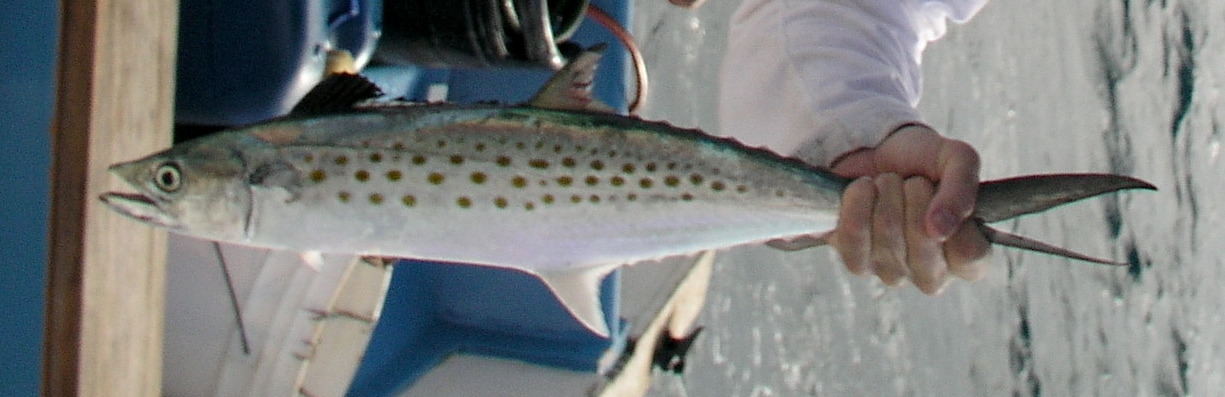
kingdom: Animalia
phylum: Chordata
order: Perciformes
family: Scombridae
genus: Scomberomorus
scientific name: Scomberomorus maculatus
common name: Spanish mackerel
